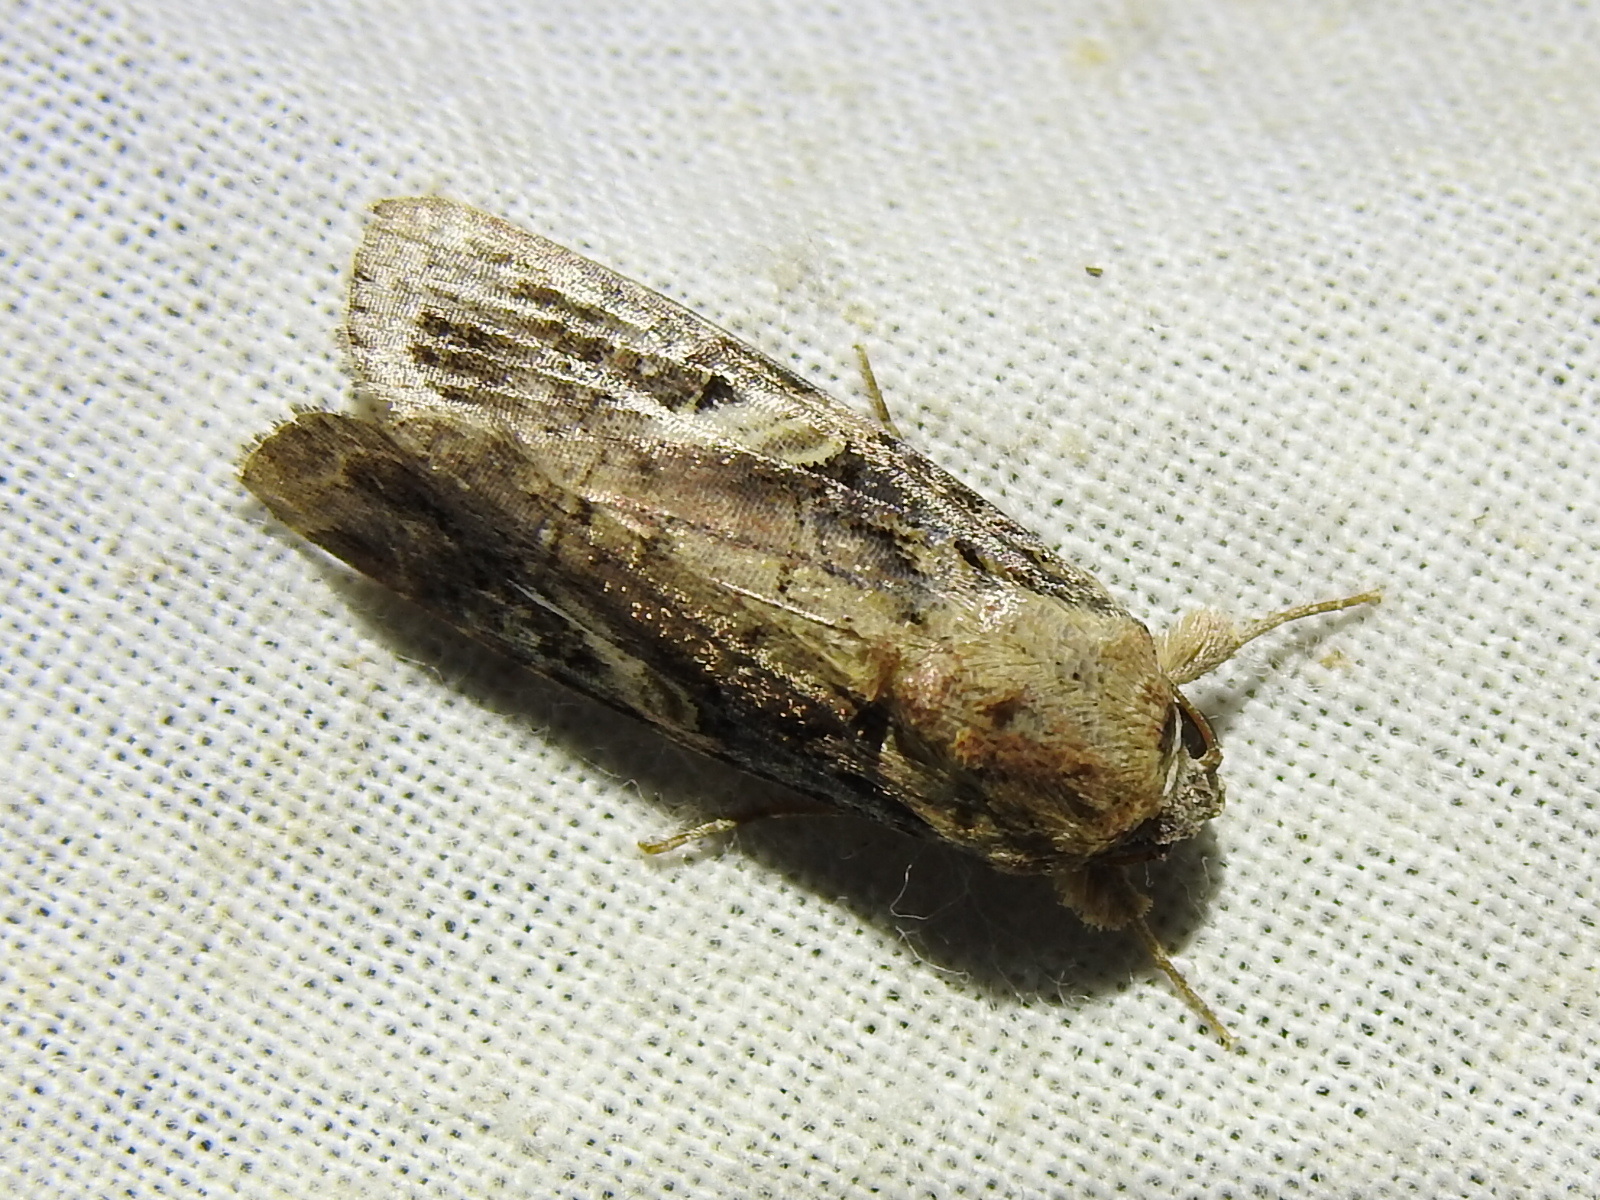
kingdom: Animalia
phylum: Arthropoda
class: Insecta
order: Lepidoptera
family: Noctuidae
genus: Spodoptera
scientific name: Spodoptera frugiperda
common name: Fall armyworm
